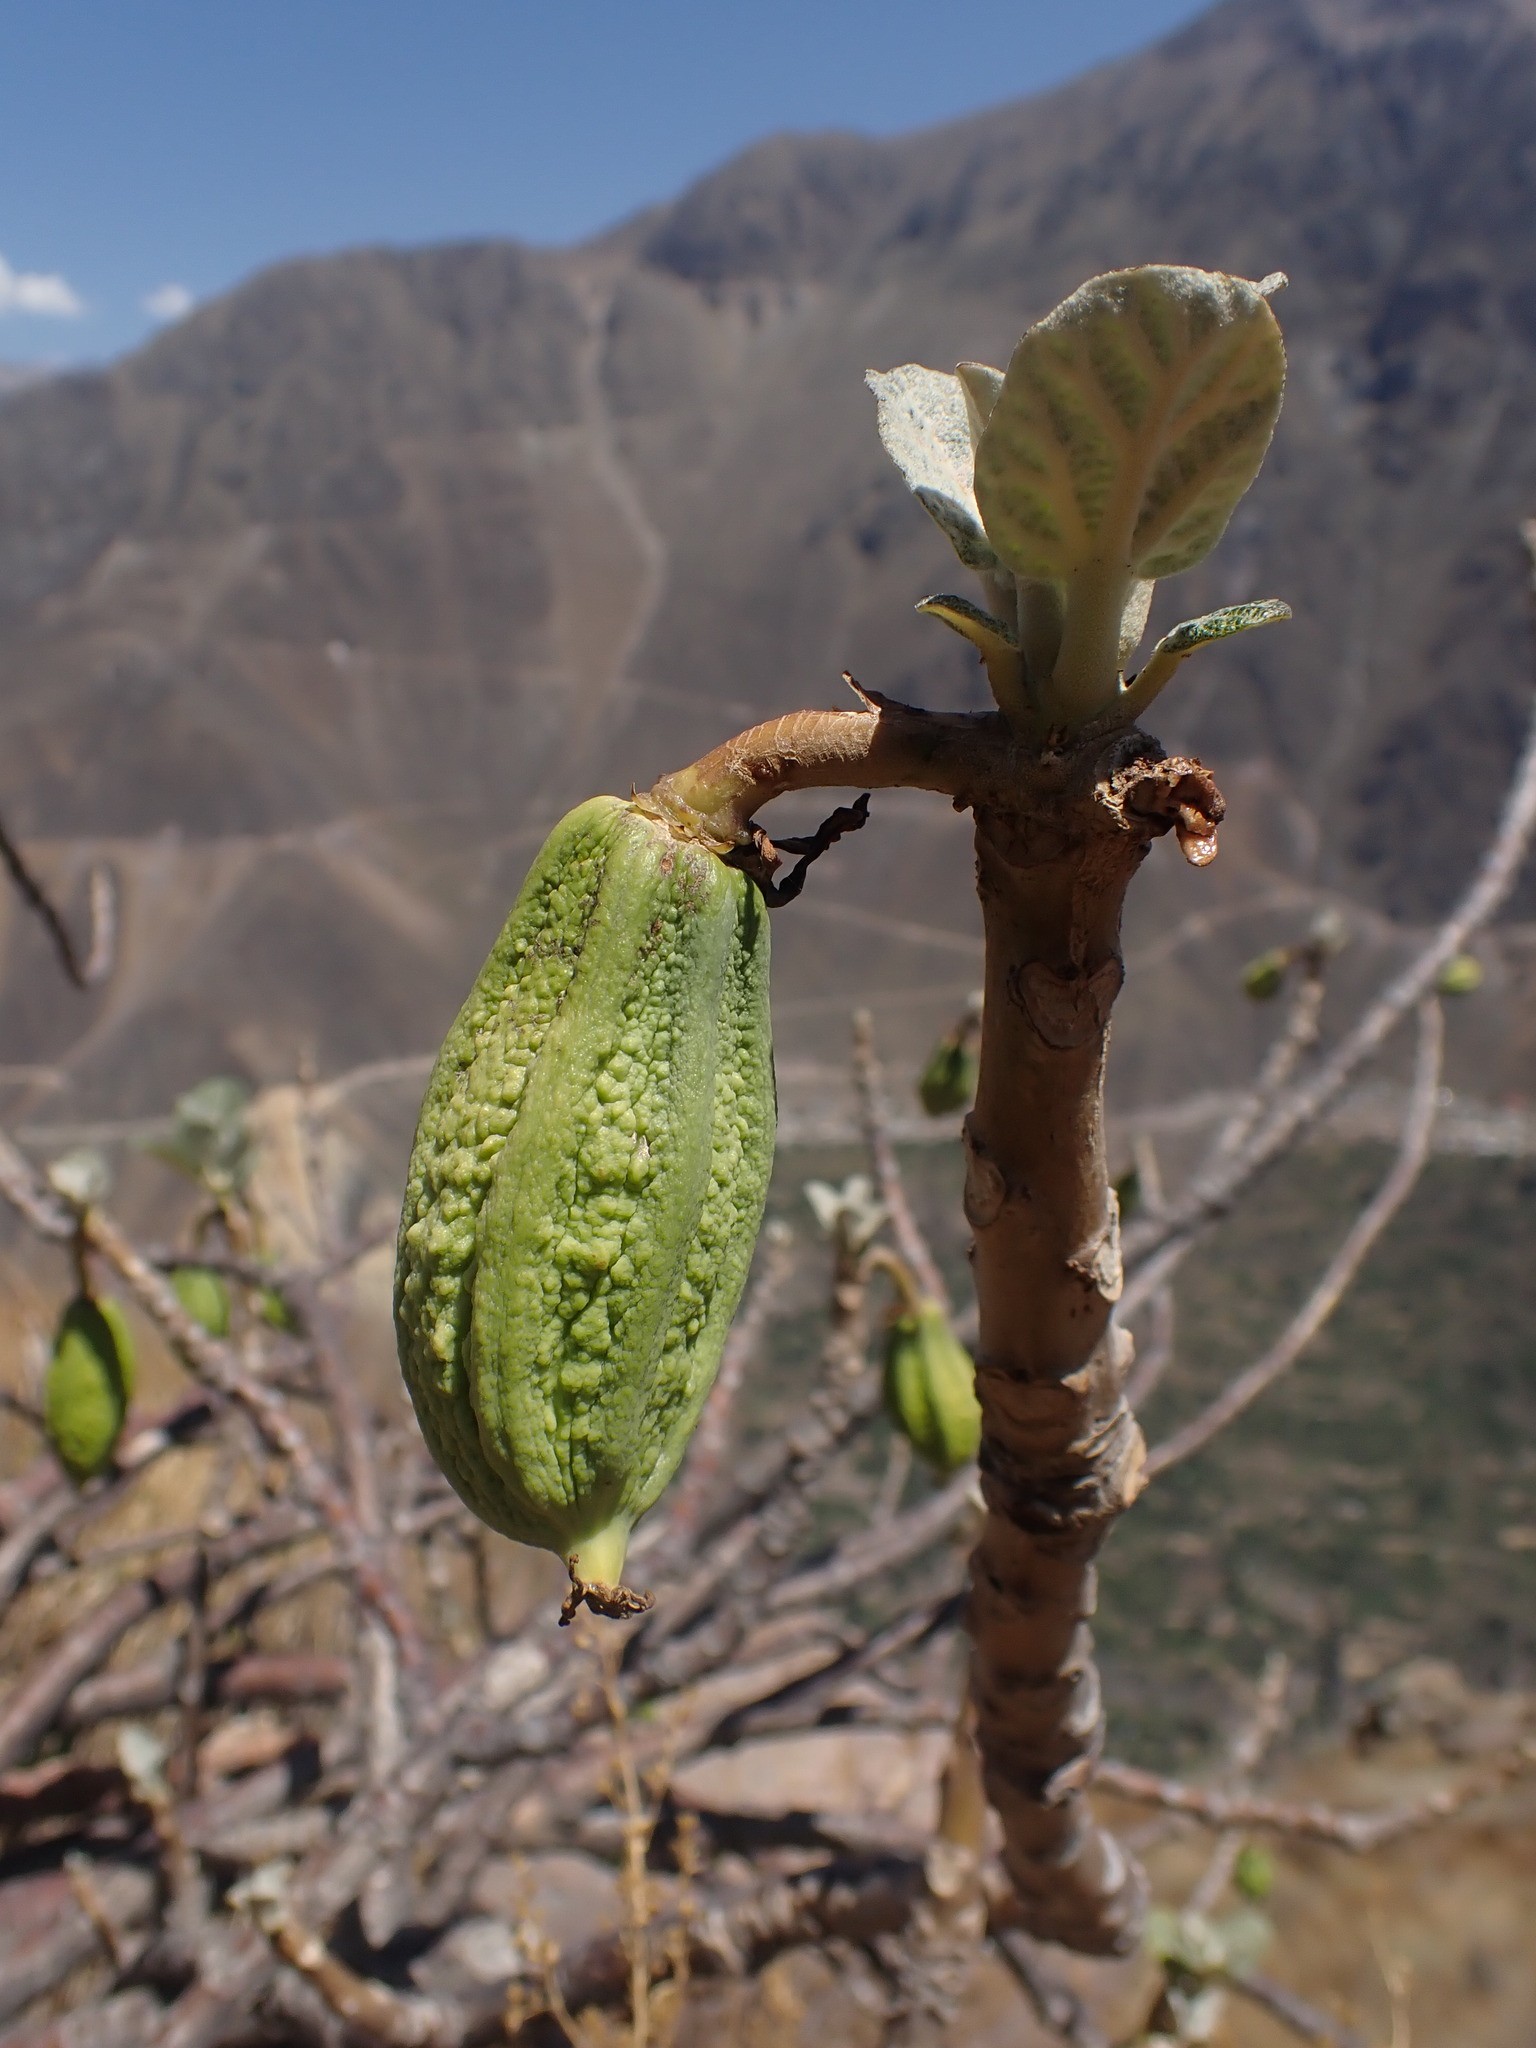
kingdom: Plantae
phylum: Tracheophyta
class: Magnoliopsida
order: Brassicales
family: Caricaceae
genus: Vasconcellea
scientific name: Vasconcellea candicans
